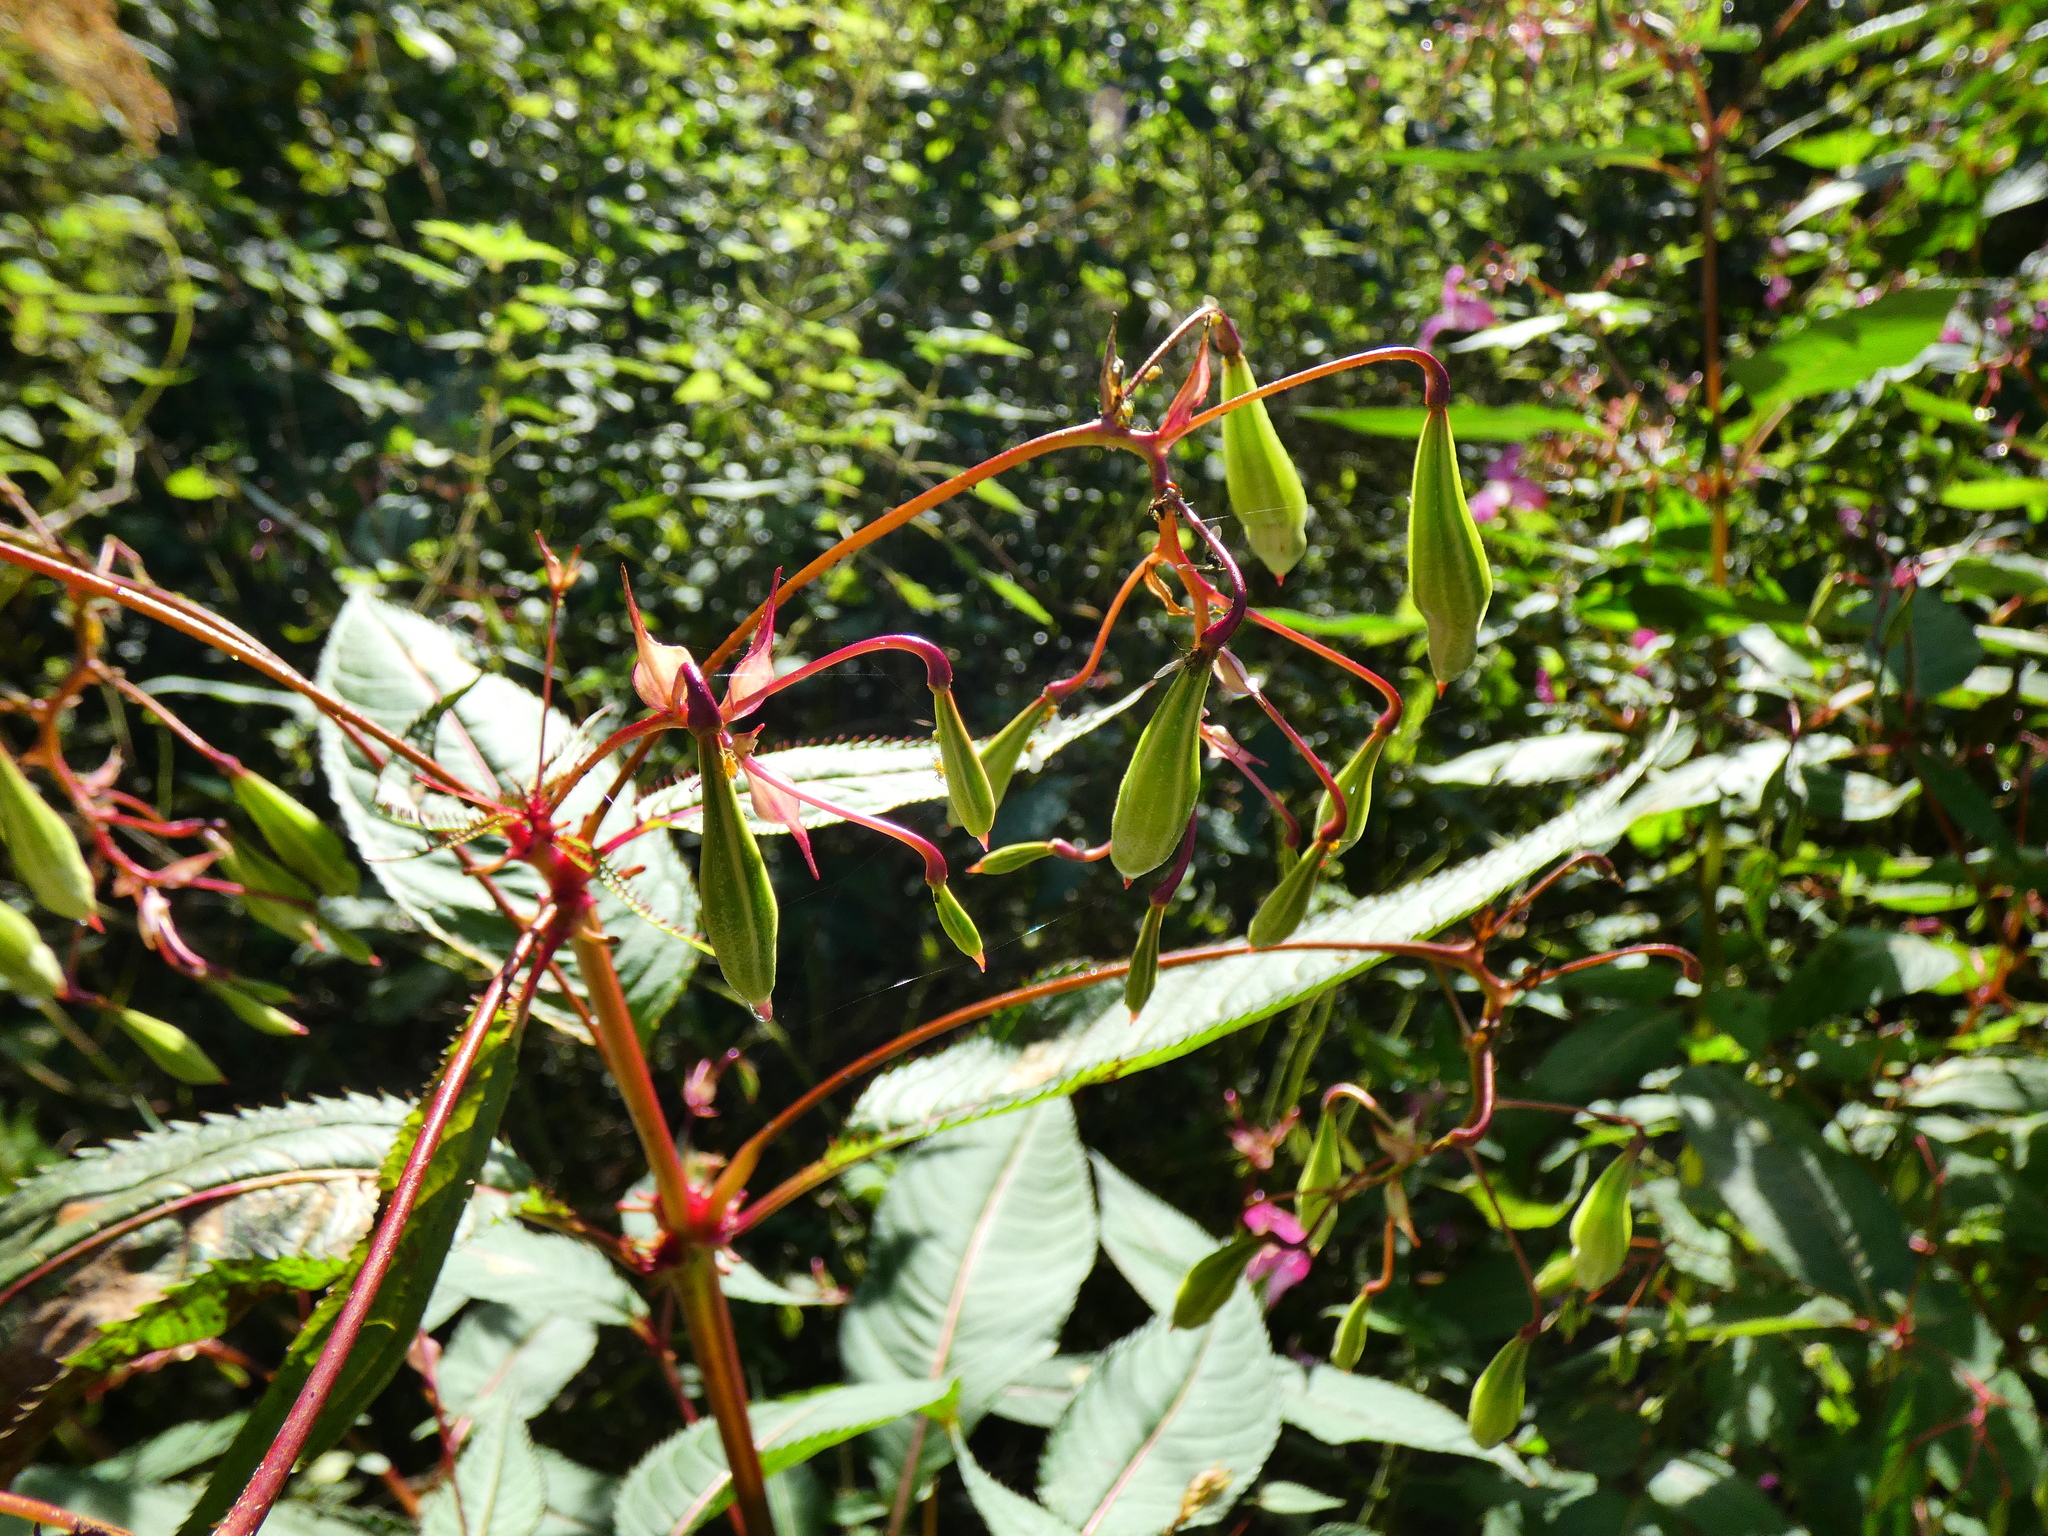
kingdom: Plantae
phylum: Tracheophyta
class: Magnoliopsida
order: Ericales
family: Balsaminaceae
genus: Impatiens
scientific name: Impatiens glandulifera
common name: Himalayan balsam
